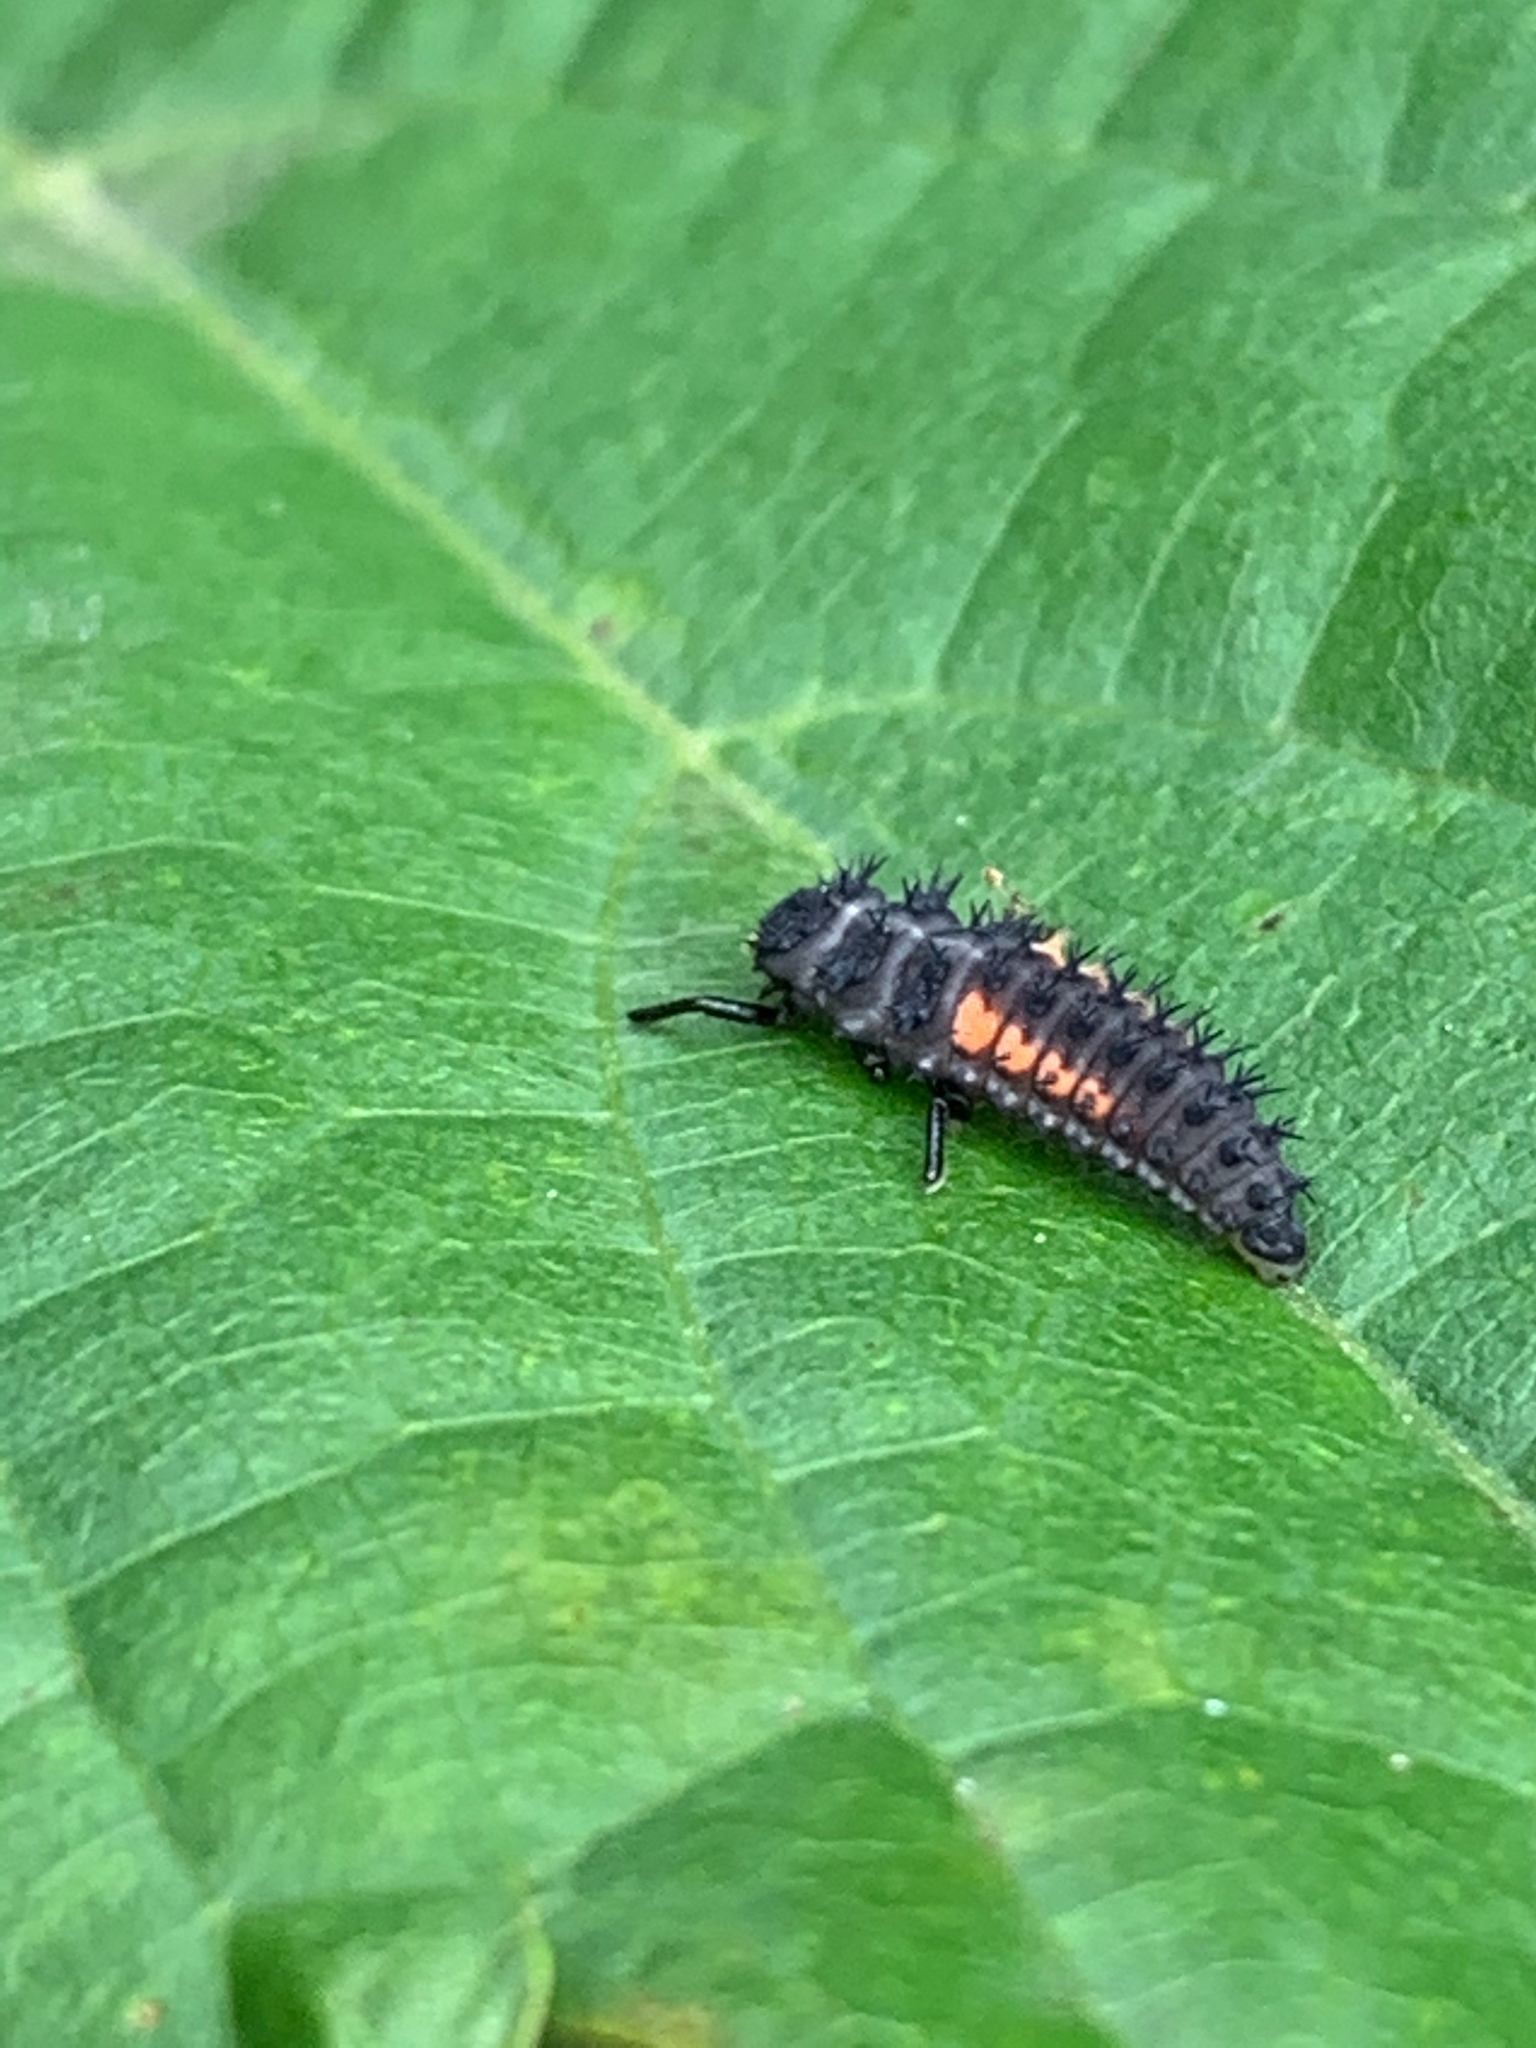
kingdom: Animalia
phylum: Arthropoda
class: Insecta
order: Coleoptera
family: Coccinellidae
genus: Harmonia
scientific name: Harmonia axyridis
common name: Harlequin ladybird
